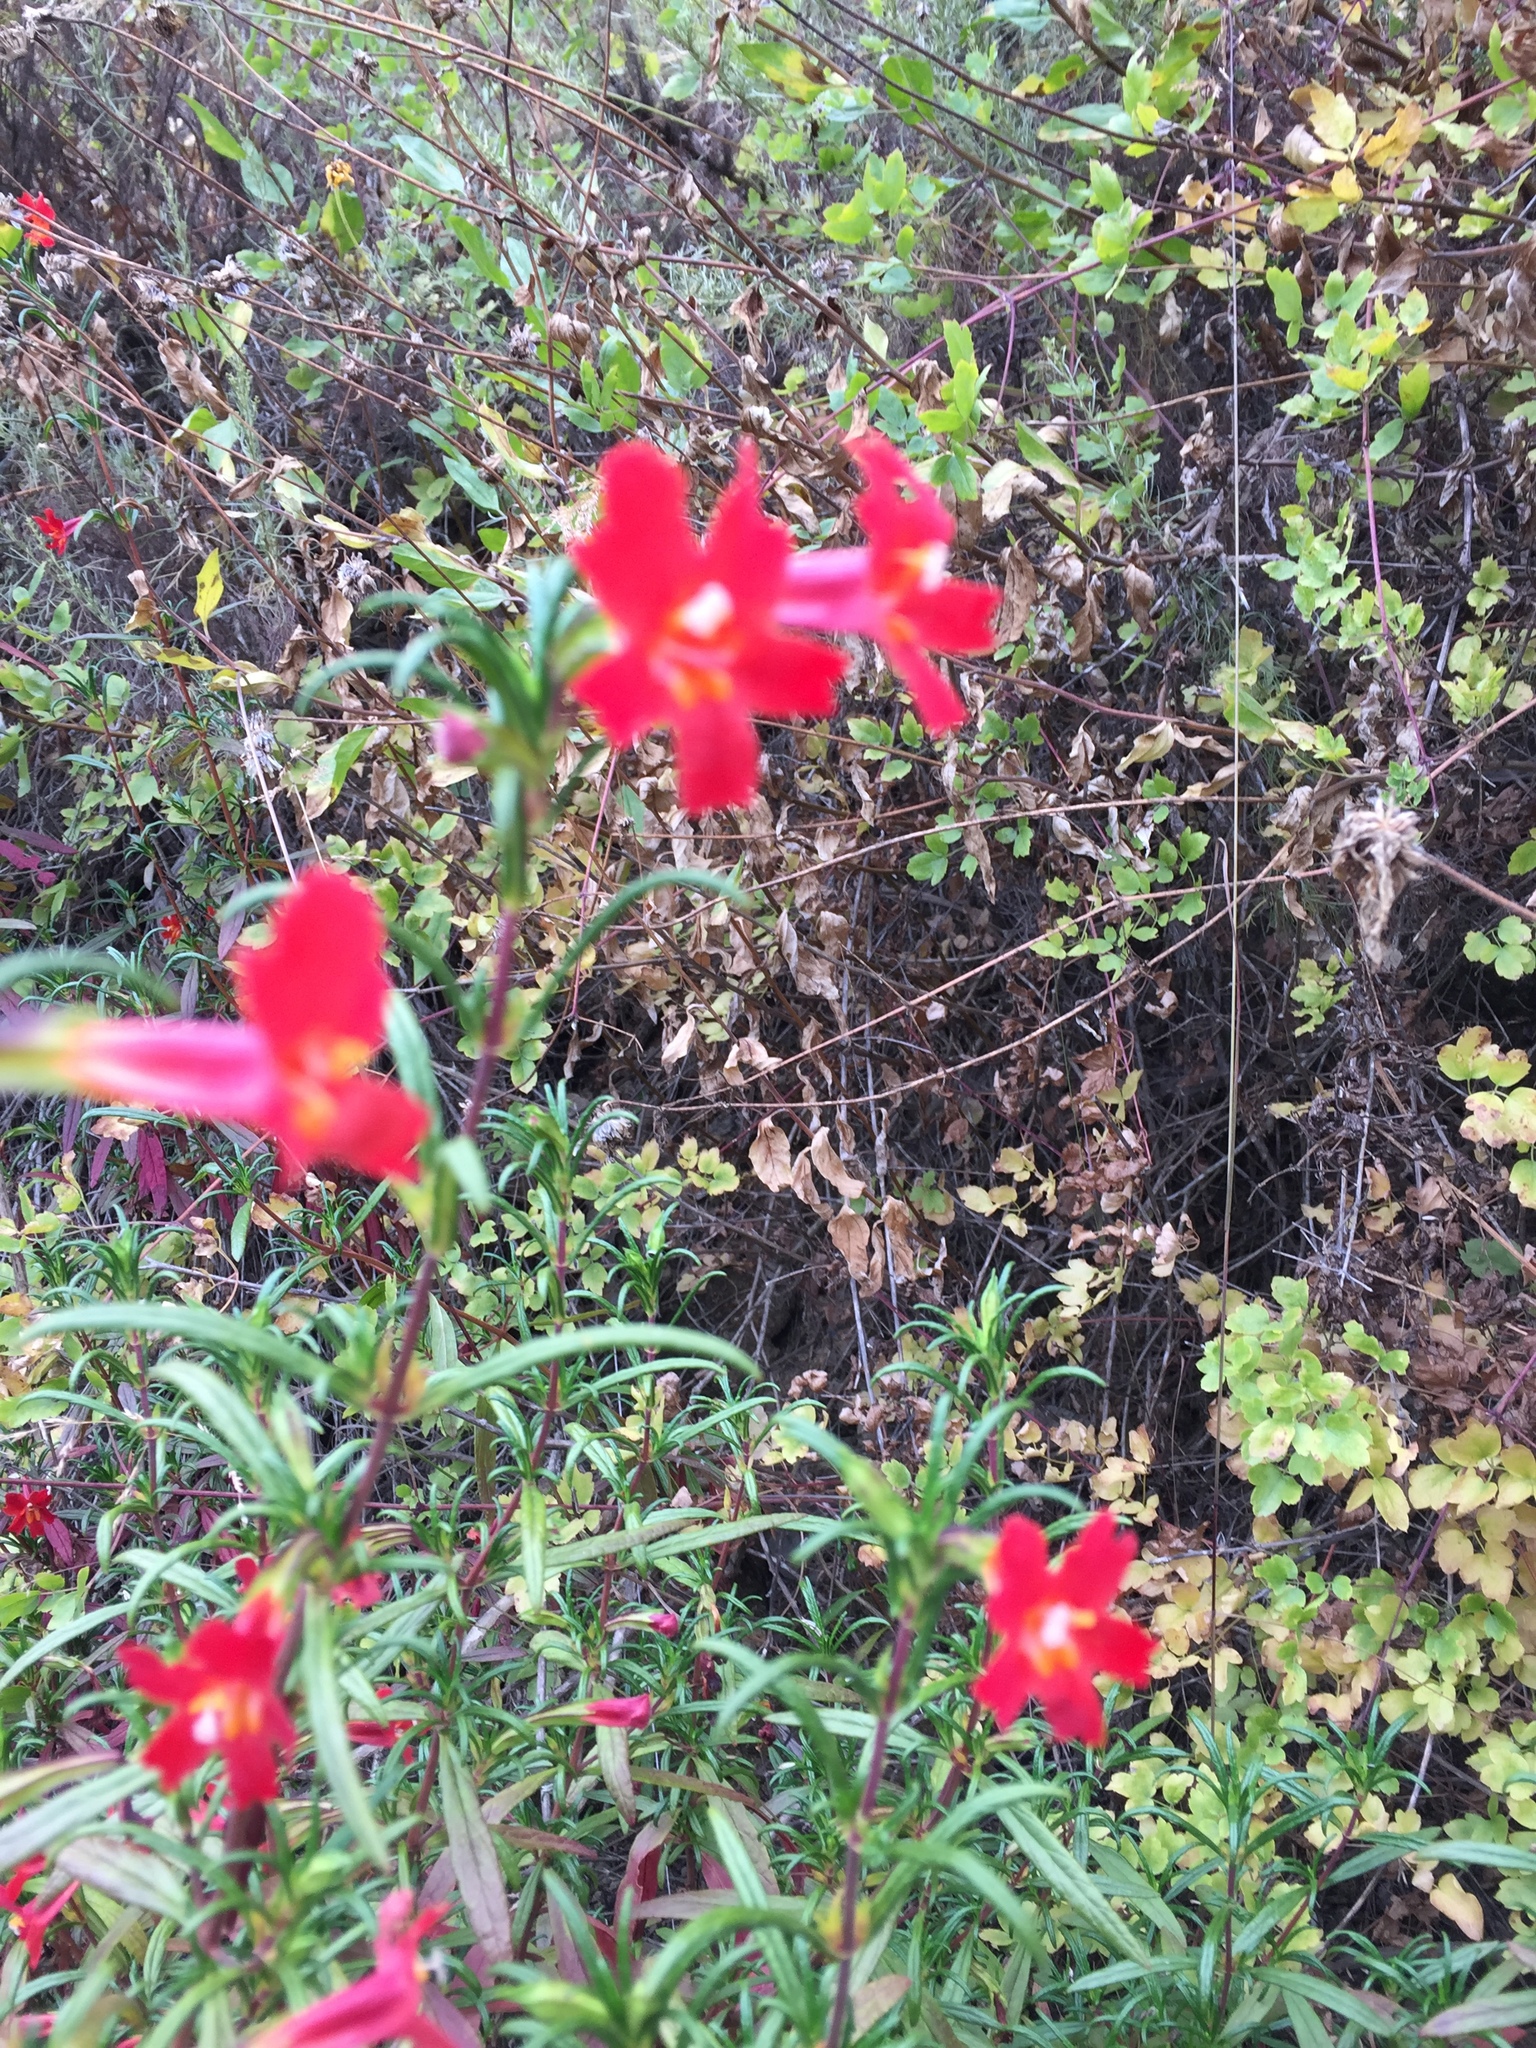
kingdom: Plantae
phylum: Tracheophyta
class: Magnoliopsida
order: Lamiales
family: Phrymaceae
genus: Diplacus
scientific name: Diplacus puniceus
